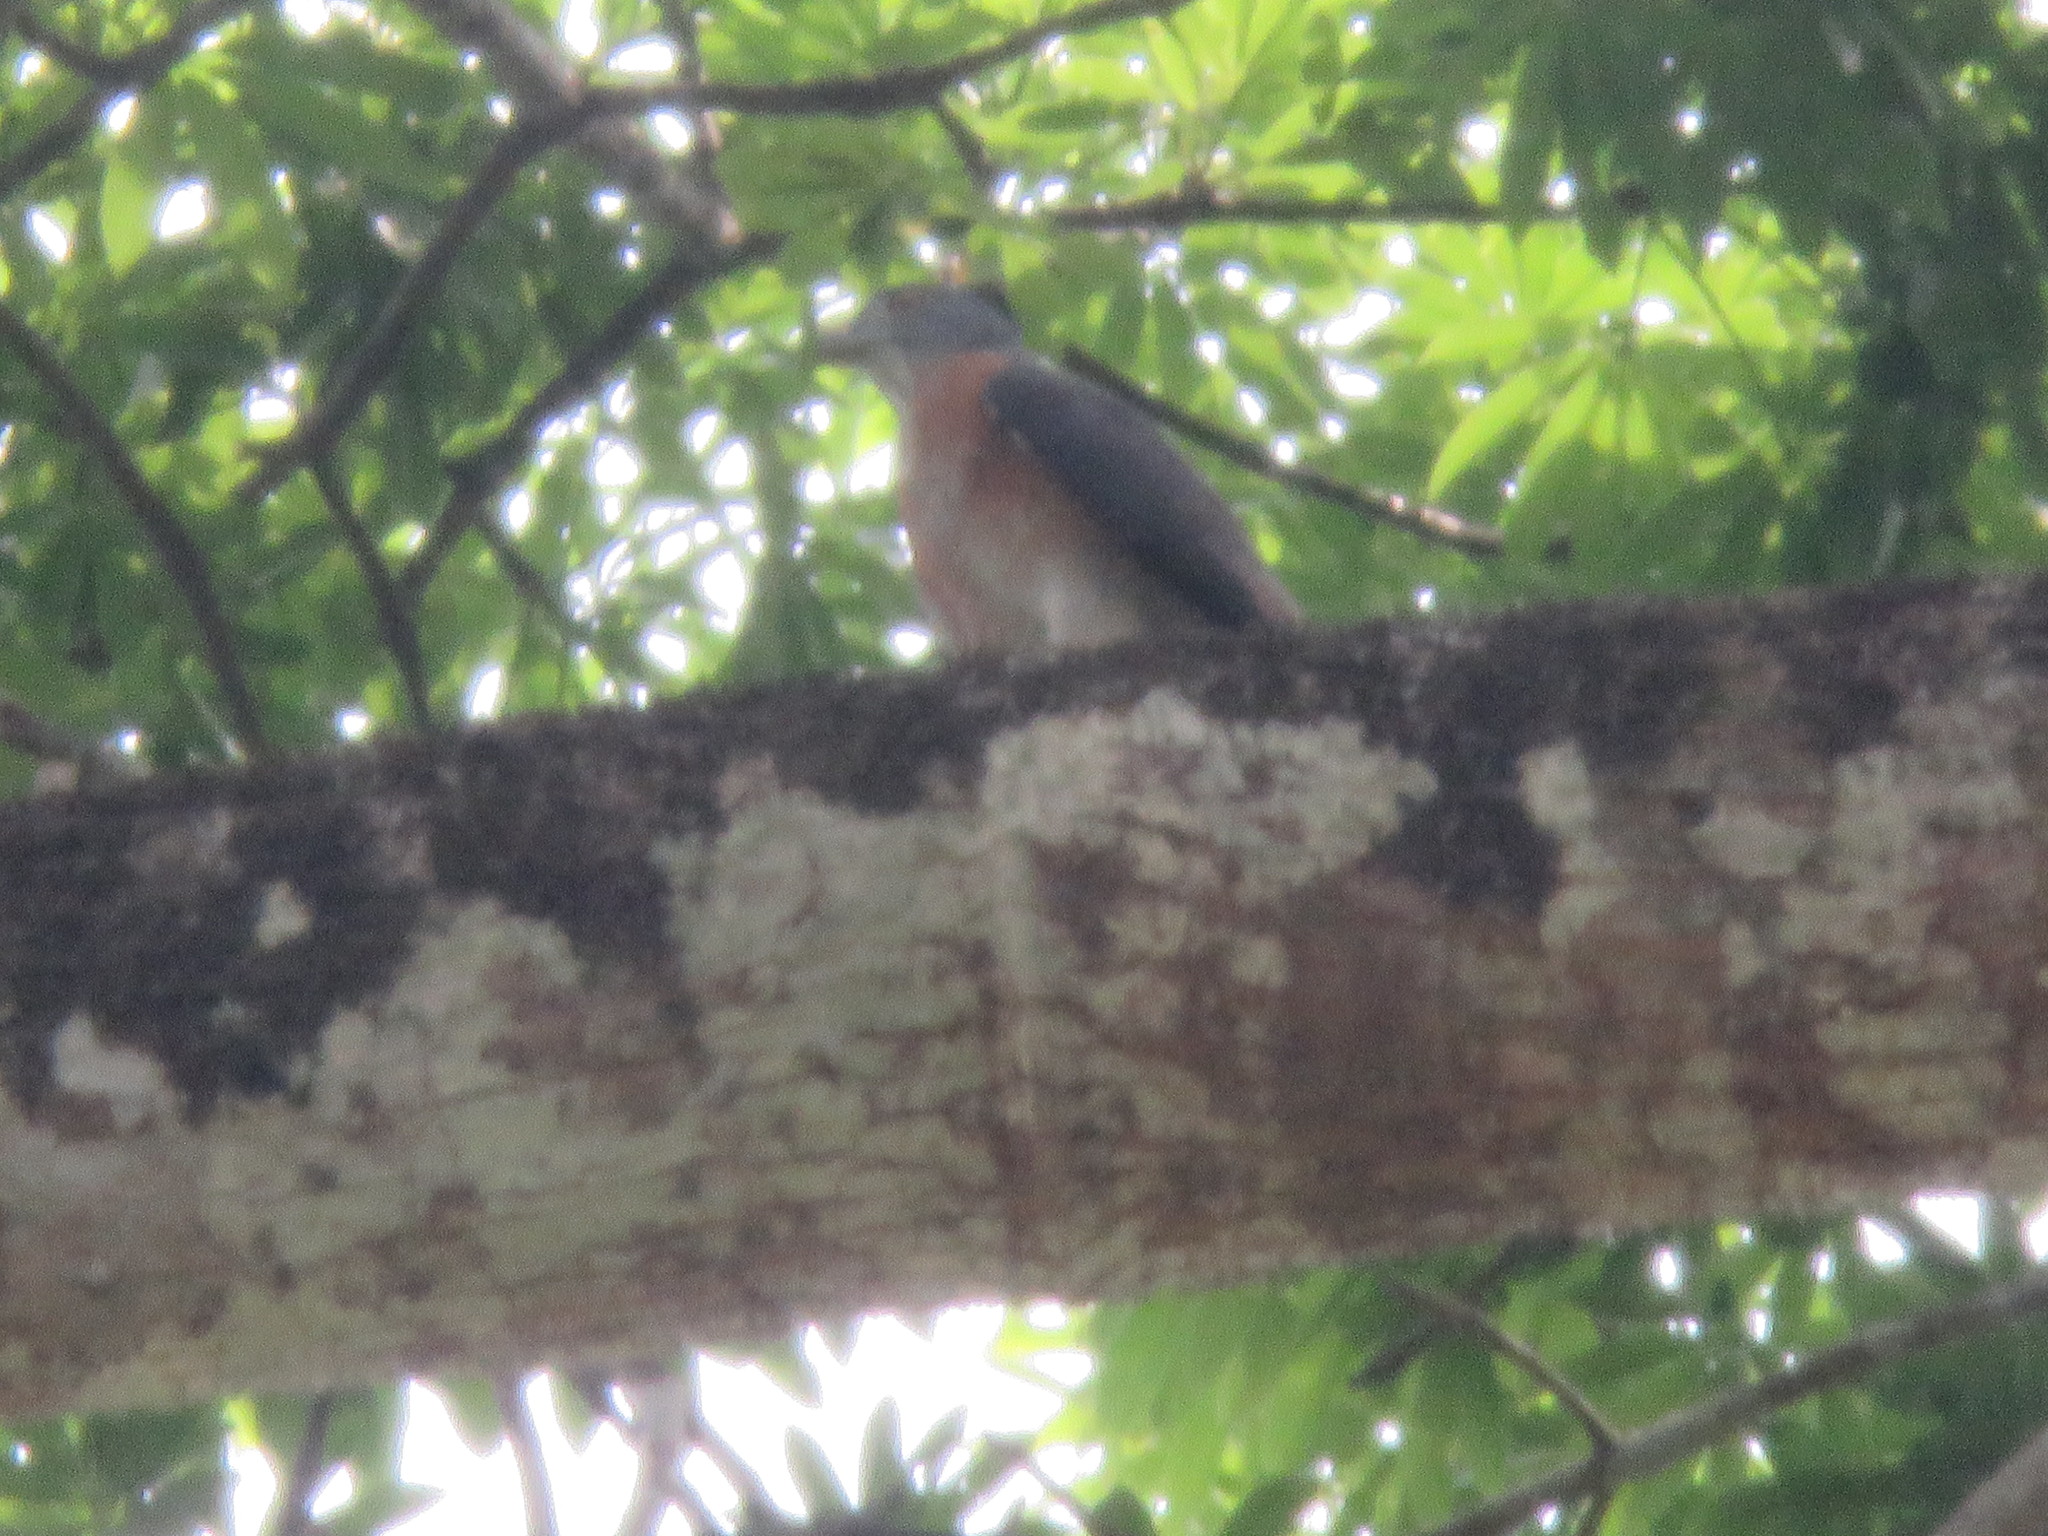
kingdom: Animalia
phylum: Chordata
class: Aves
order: Accipitriformes
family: Accipitridae
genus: Harpagus
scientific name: Harpagus bidentatus
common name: Double-toothed kite
